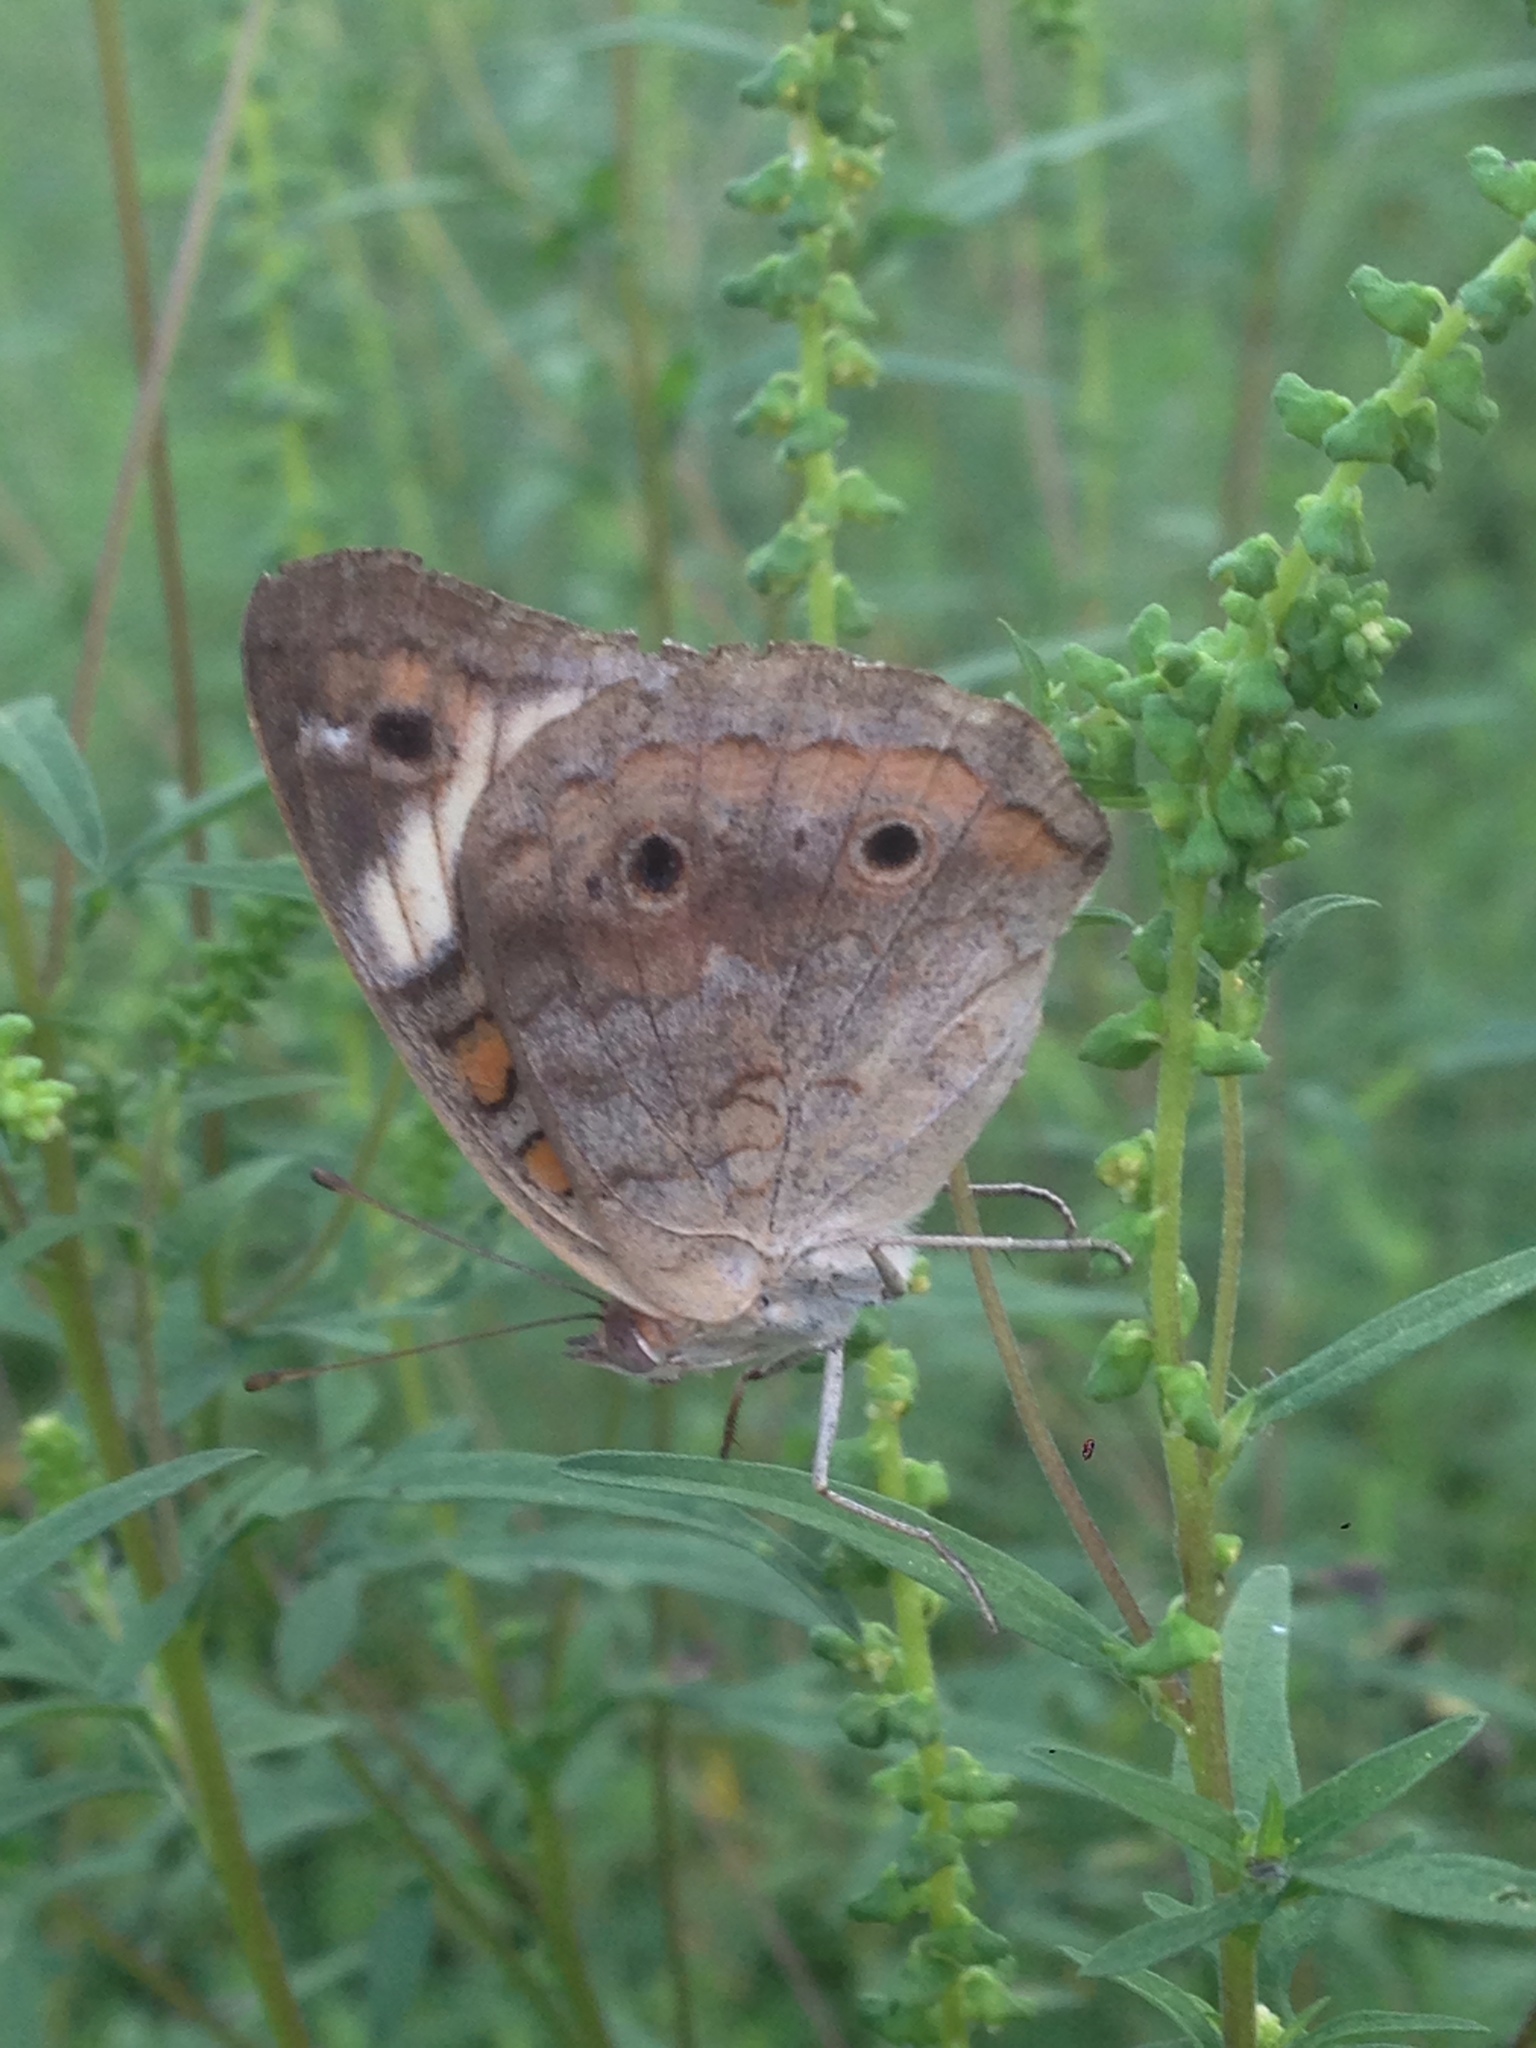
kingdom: Animalia
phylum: Arthropoda
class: Insecta
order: Lepidoptera
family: Nymphalidae
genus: Junonia
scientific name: Junonia coenia
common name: Common buckeye
